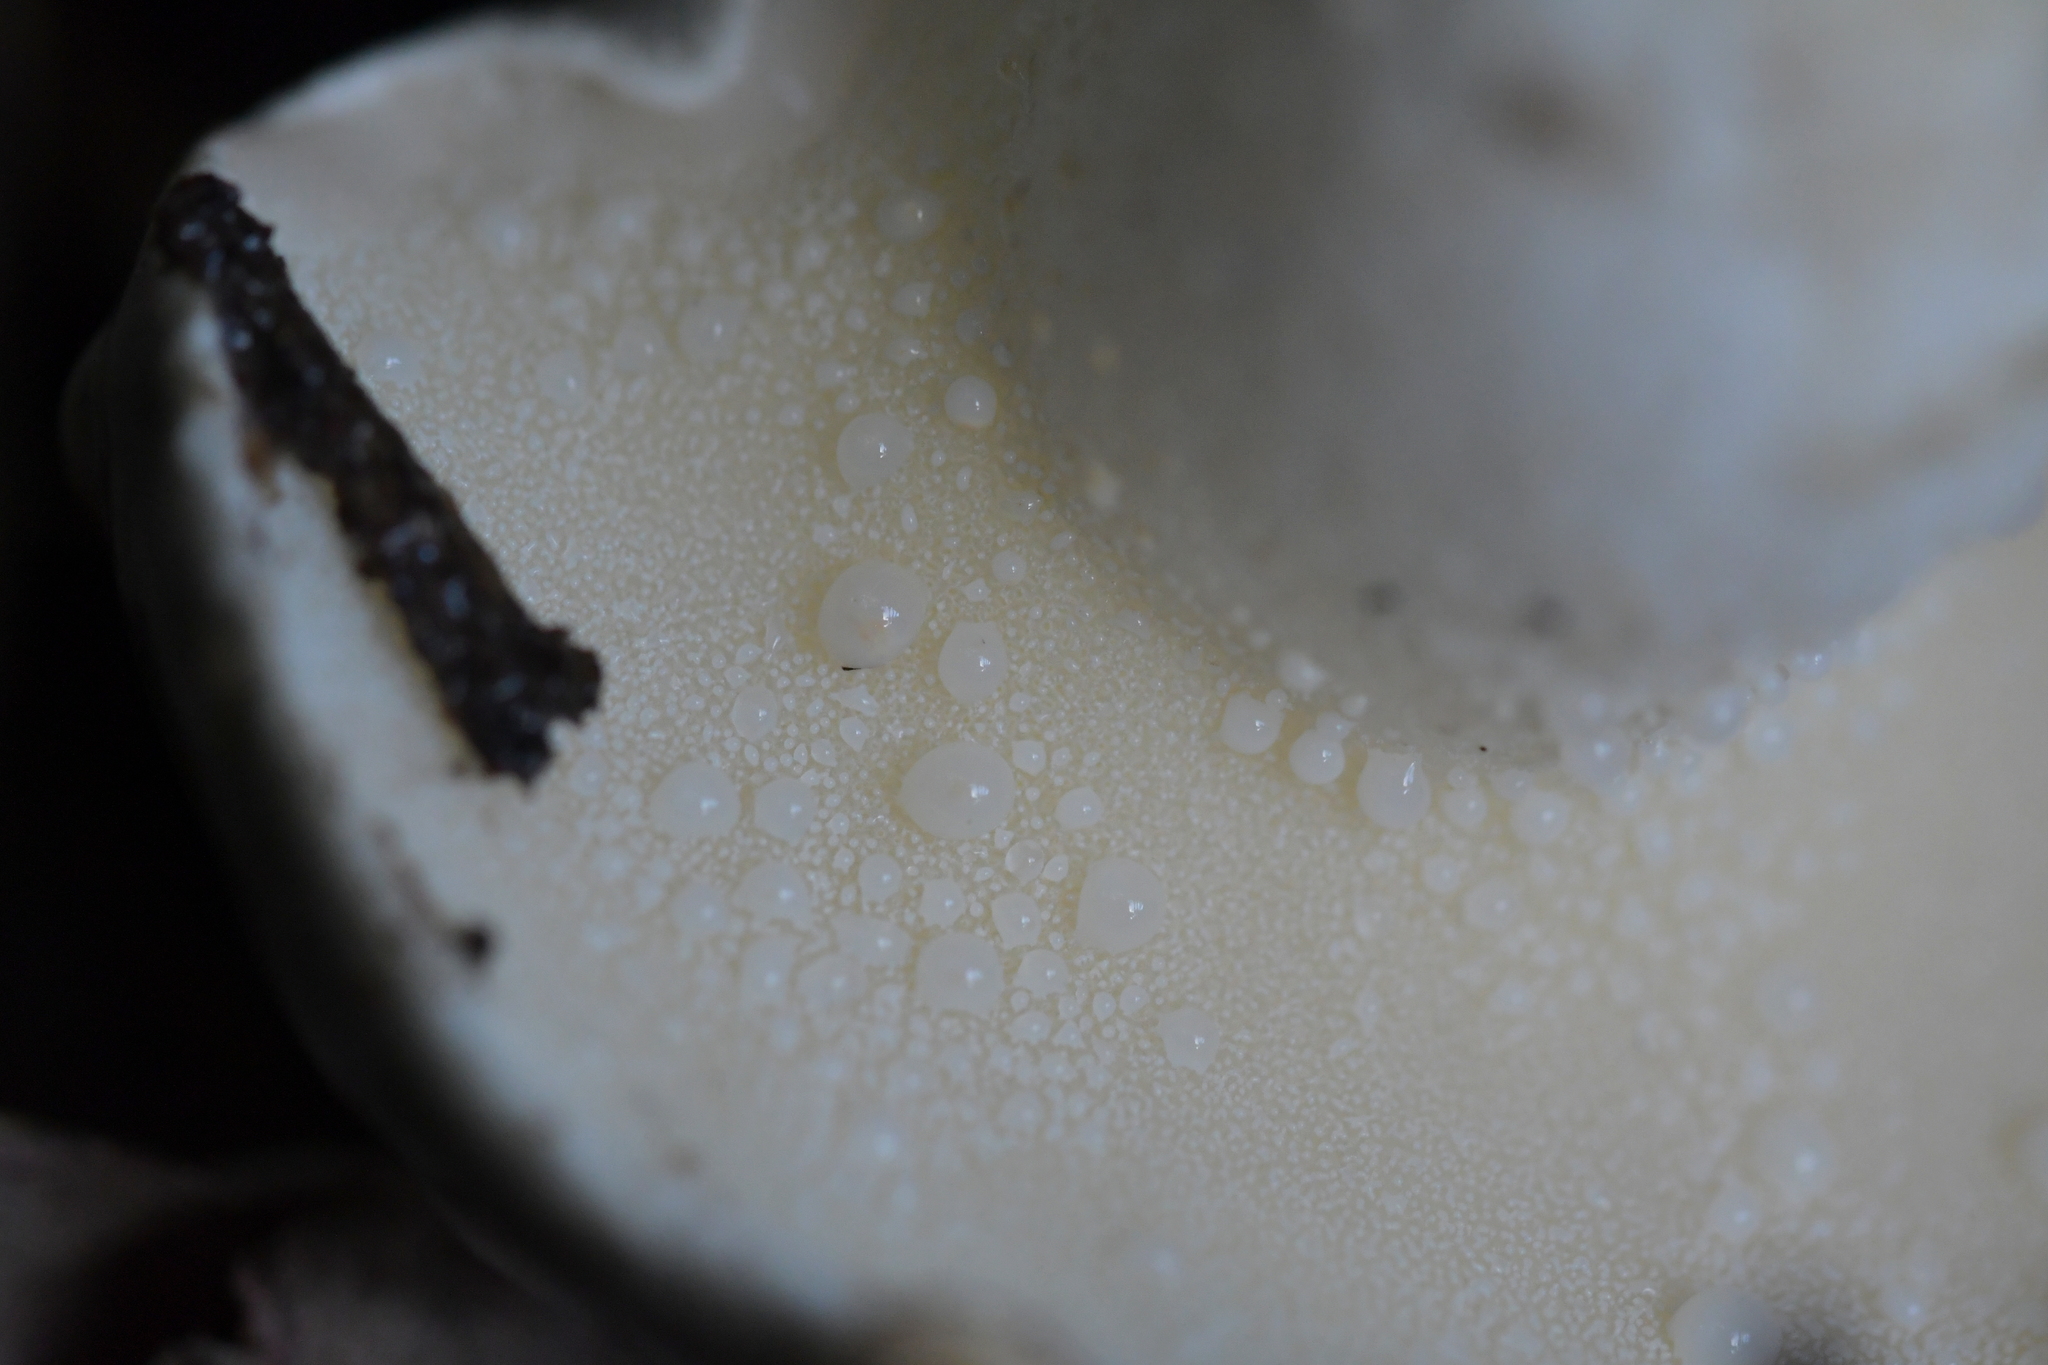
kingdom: Fungi
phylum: Basidiomycota
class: Agaricomycetes
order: Boletales
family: Suillaceae
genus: Suillus
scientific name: Suillus pungens
